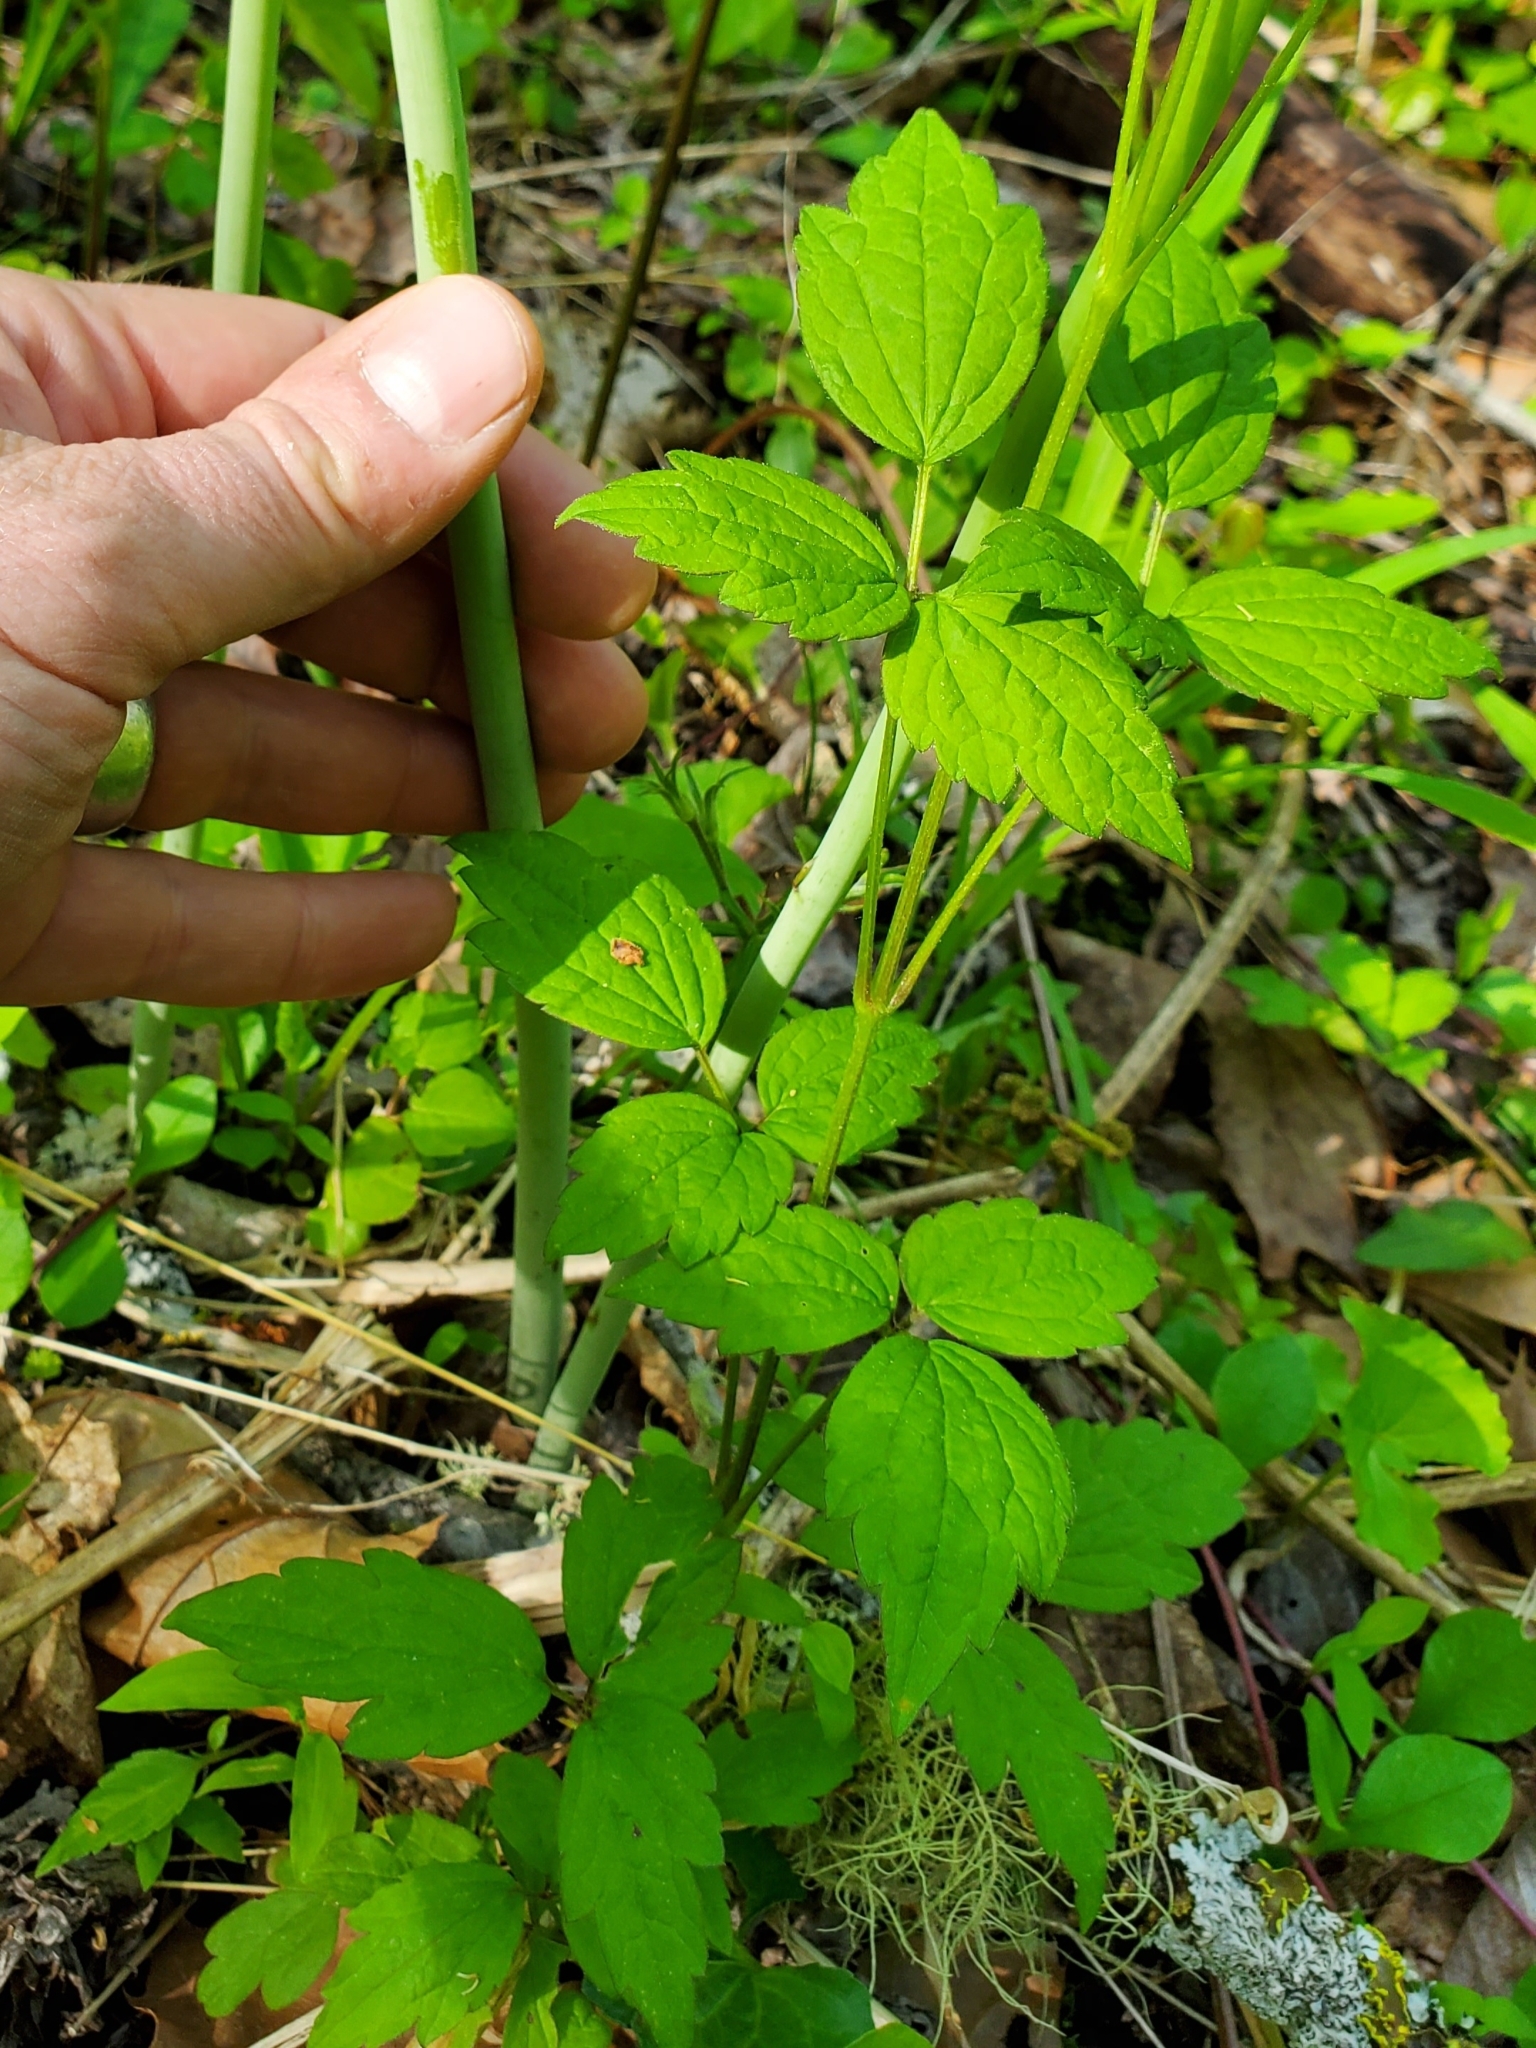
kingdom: Plantae
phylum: Tracheophyta
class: Magnoliopsida
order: Ranunculales
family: Ranunculaceae
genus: Clematis
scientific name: Clematis virginiana
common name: Virgin's-bower
